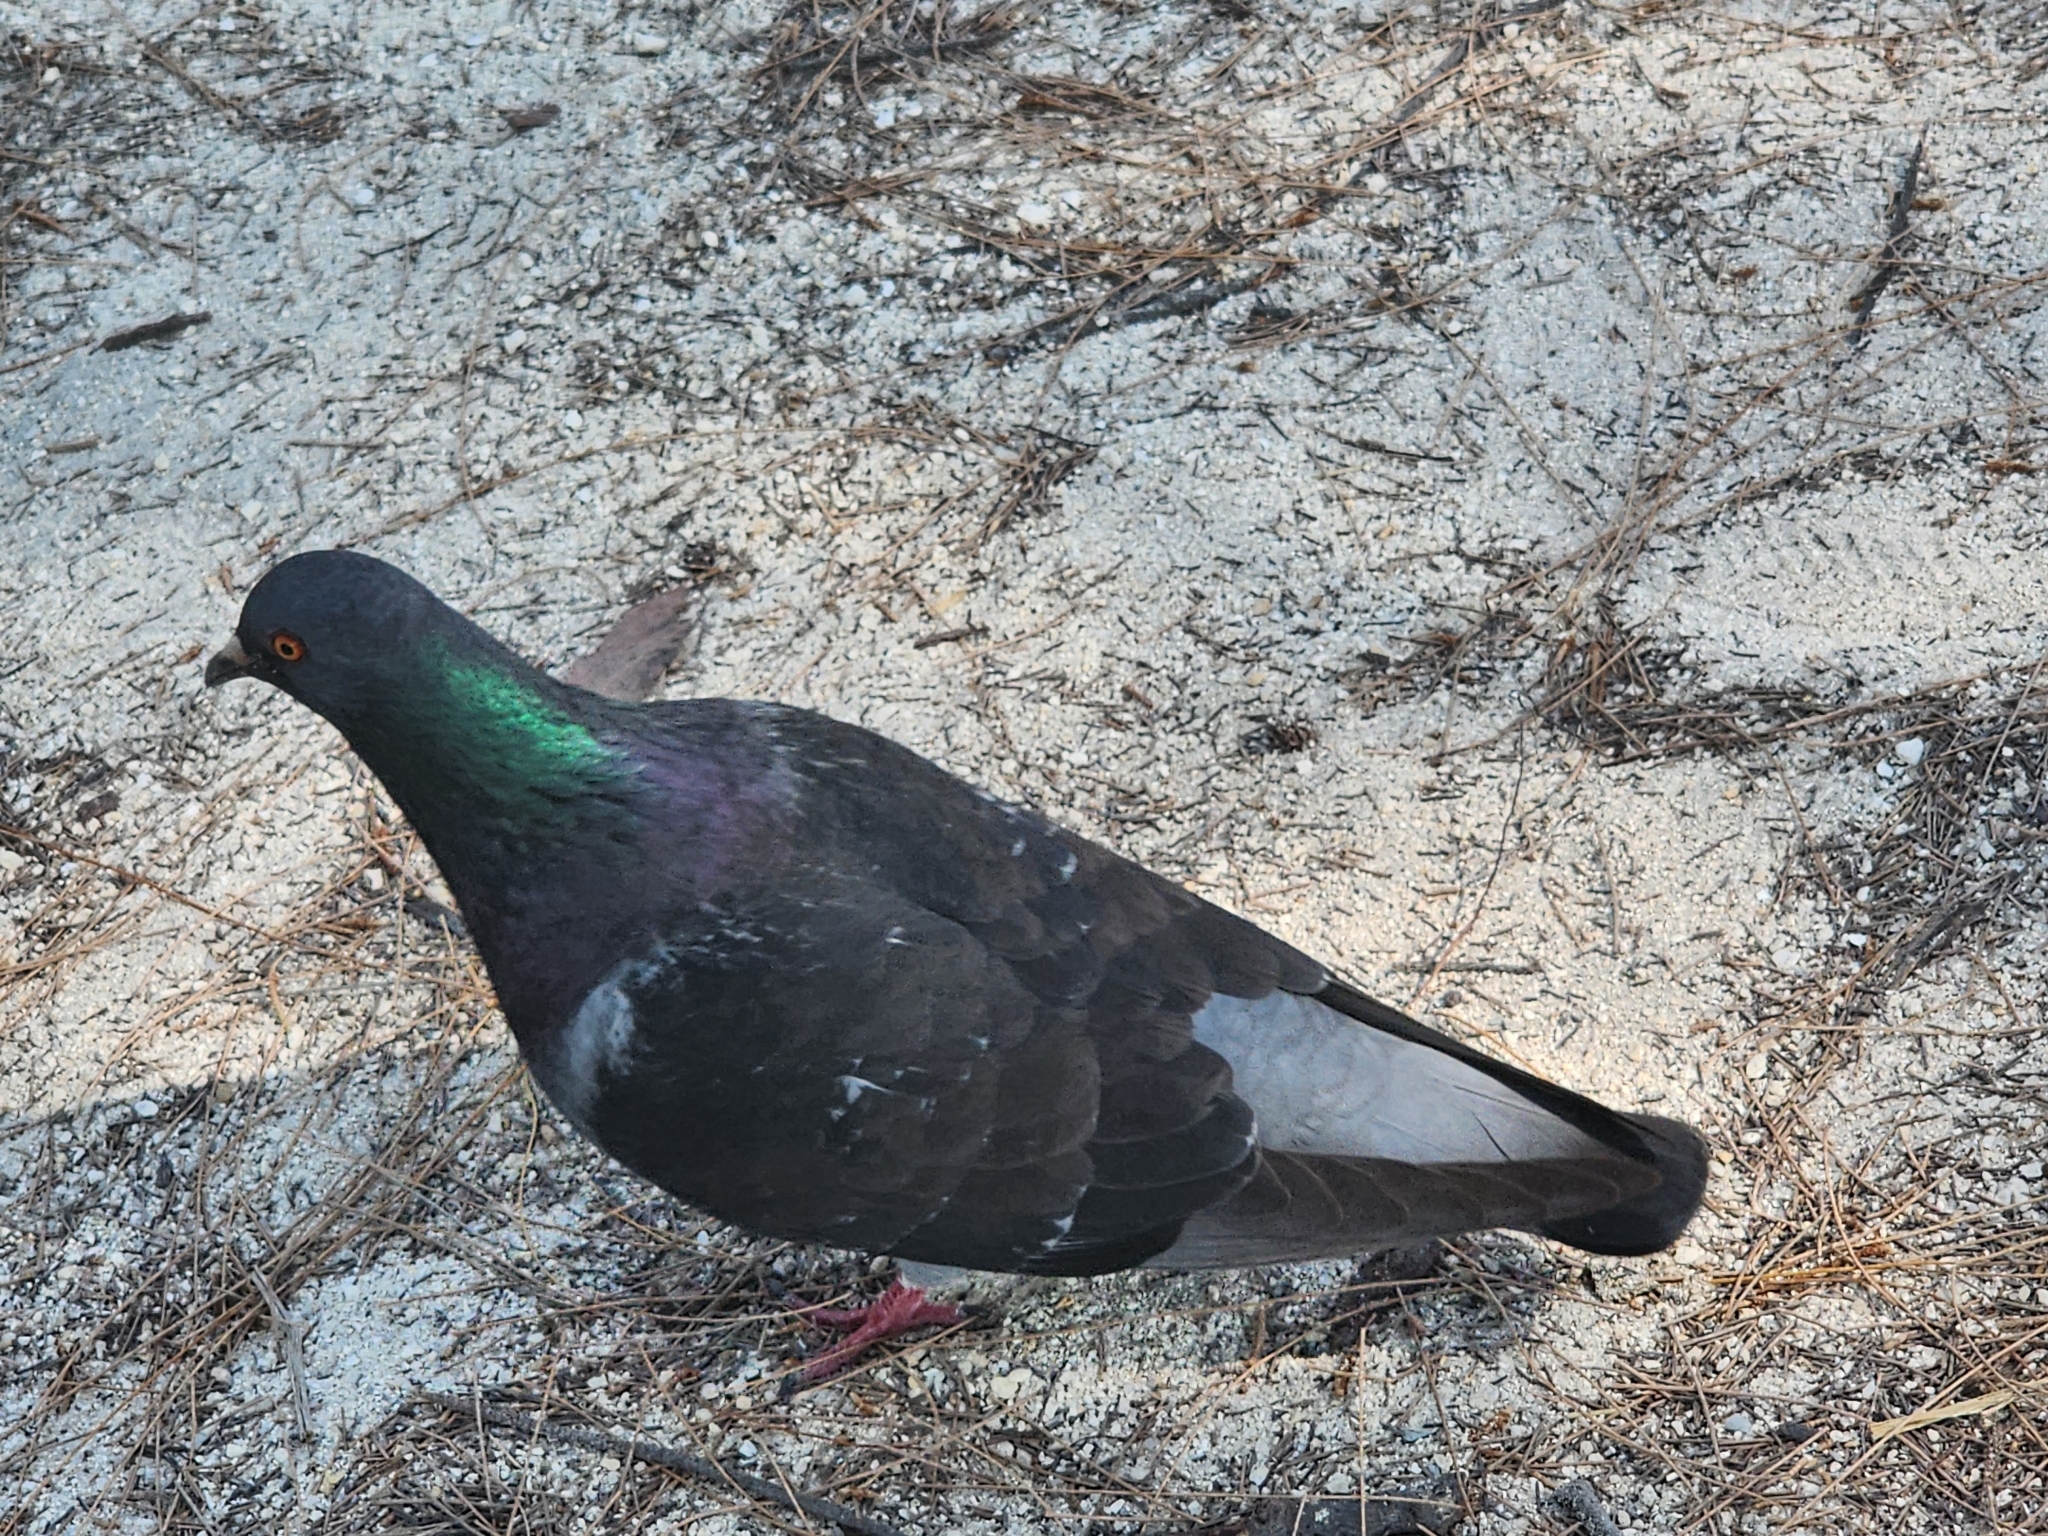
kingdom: Animalia
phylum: Chordata
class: Aves
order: Columbiformes
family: Columbidae
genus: Columba
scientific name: Columba livia
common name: Rock pigeon
